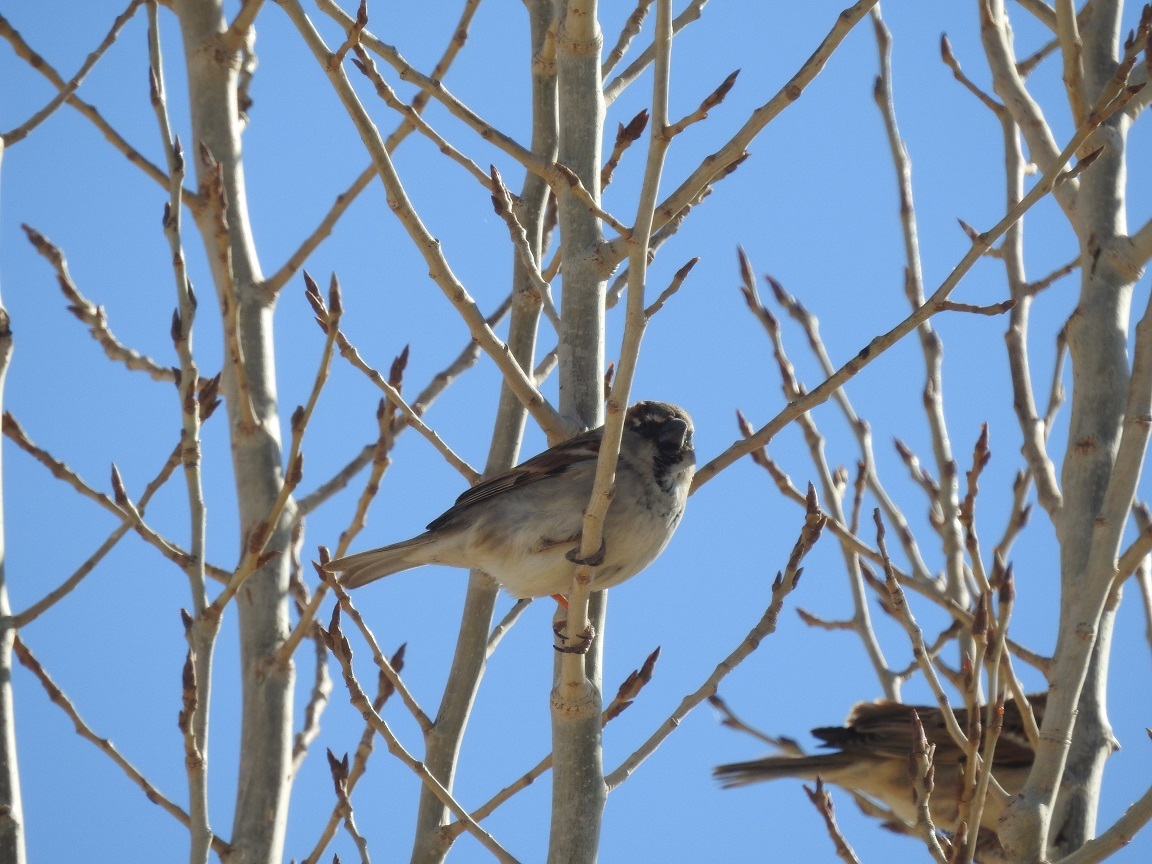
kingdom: Animalia
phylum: Chordata
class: Aves
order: Passeriformes
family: Passeridae
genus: Passer
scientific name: Passer domesticus
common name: House sparrow
